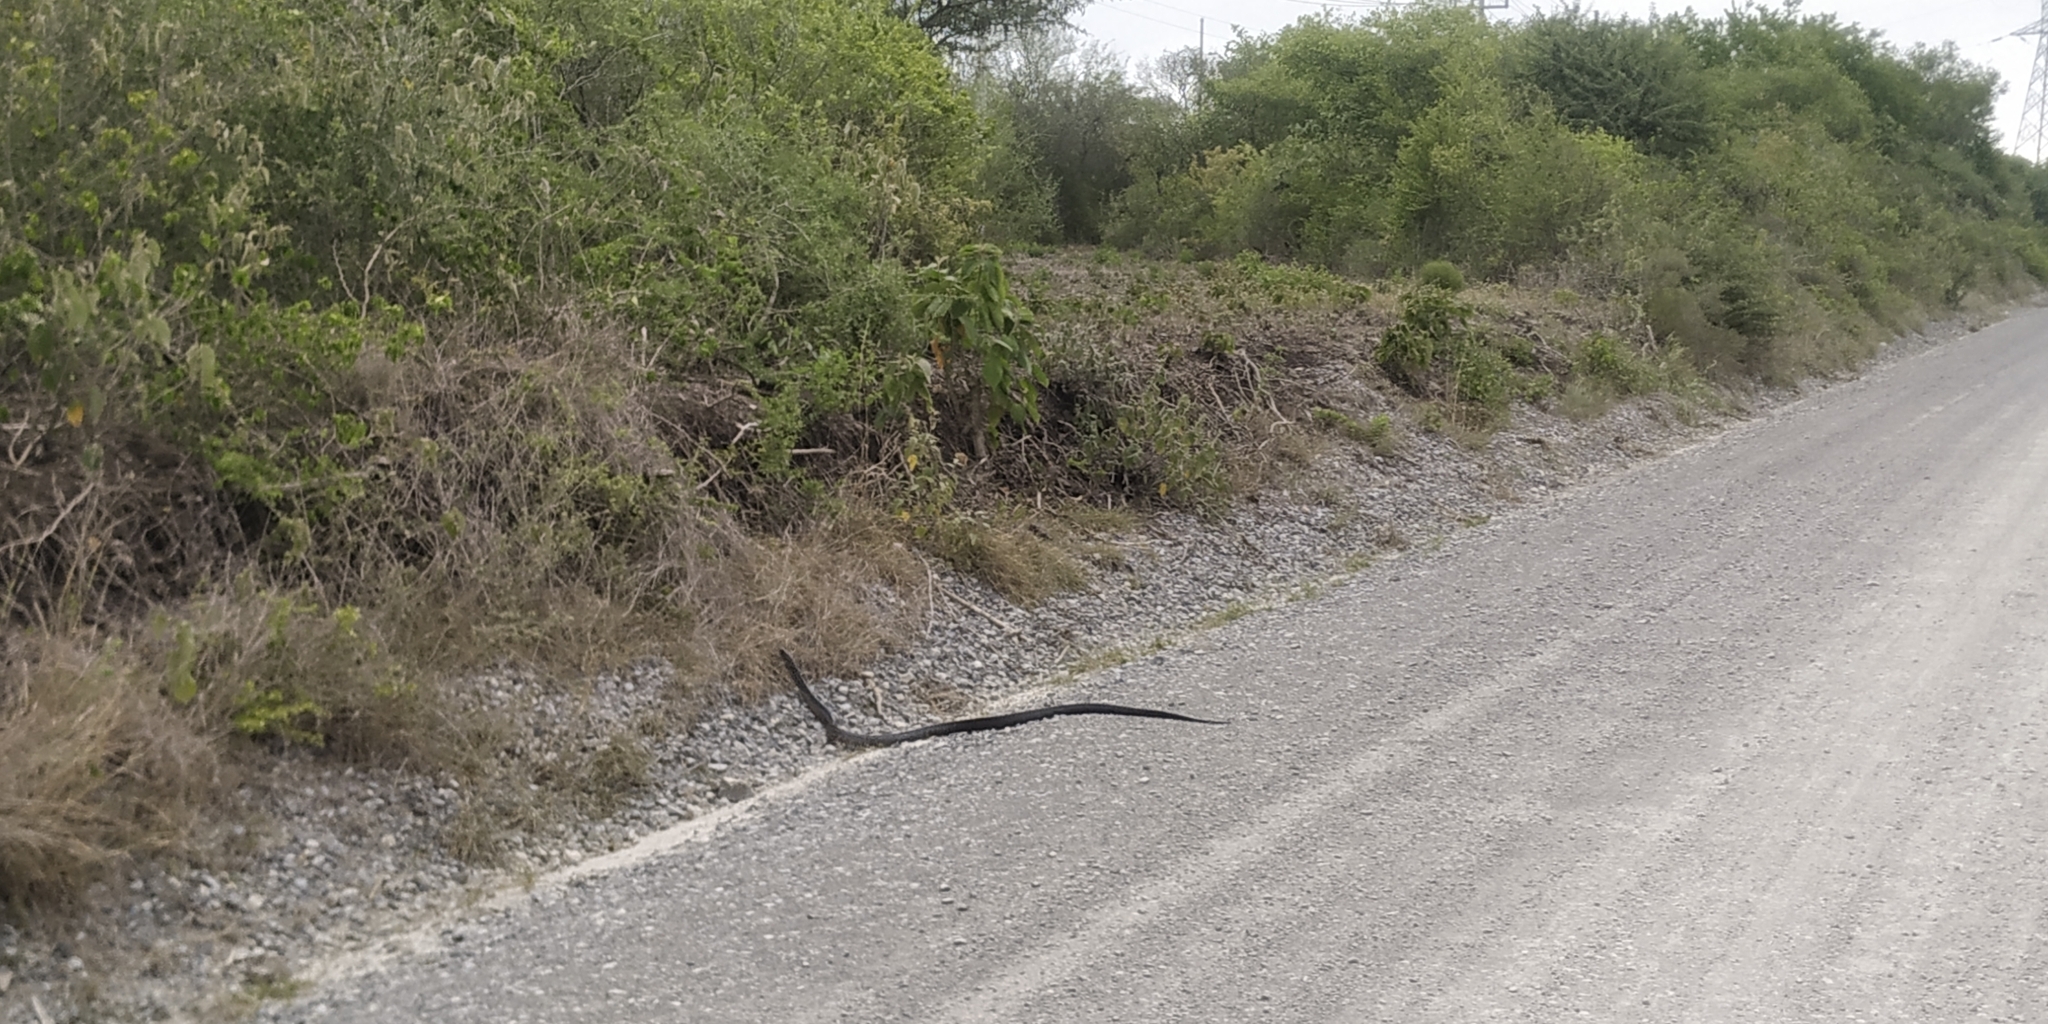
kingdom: Animalia
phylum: Chordata
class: Squamata
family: Colubridae
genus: Drymarchon
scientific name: Drymarchon melanurus
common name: Central american indigo snake
